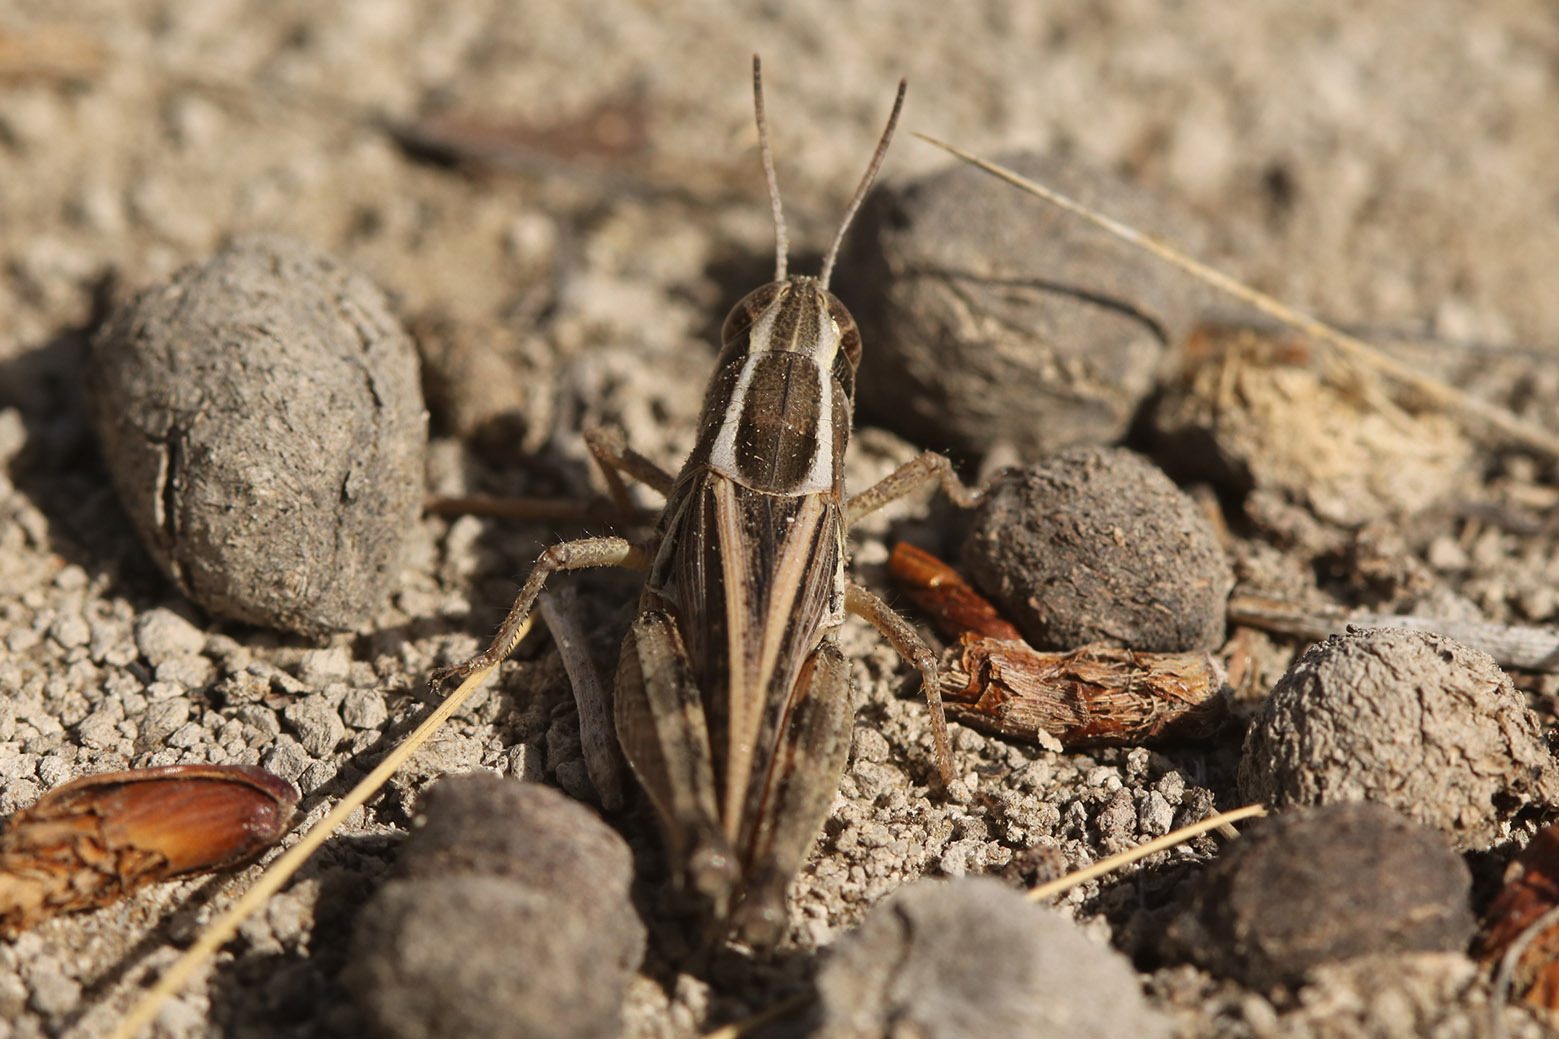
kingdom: Animalia
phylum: Arthropoda
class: Insecta
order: Orthoptera
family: Acrididae
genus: Dichroplus
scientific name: Dichroplus pratensis
